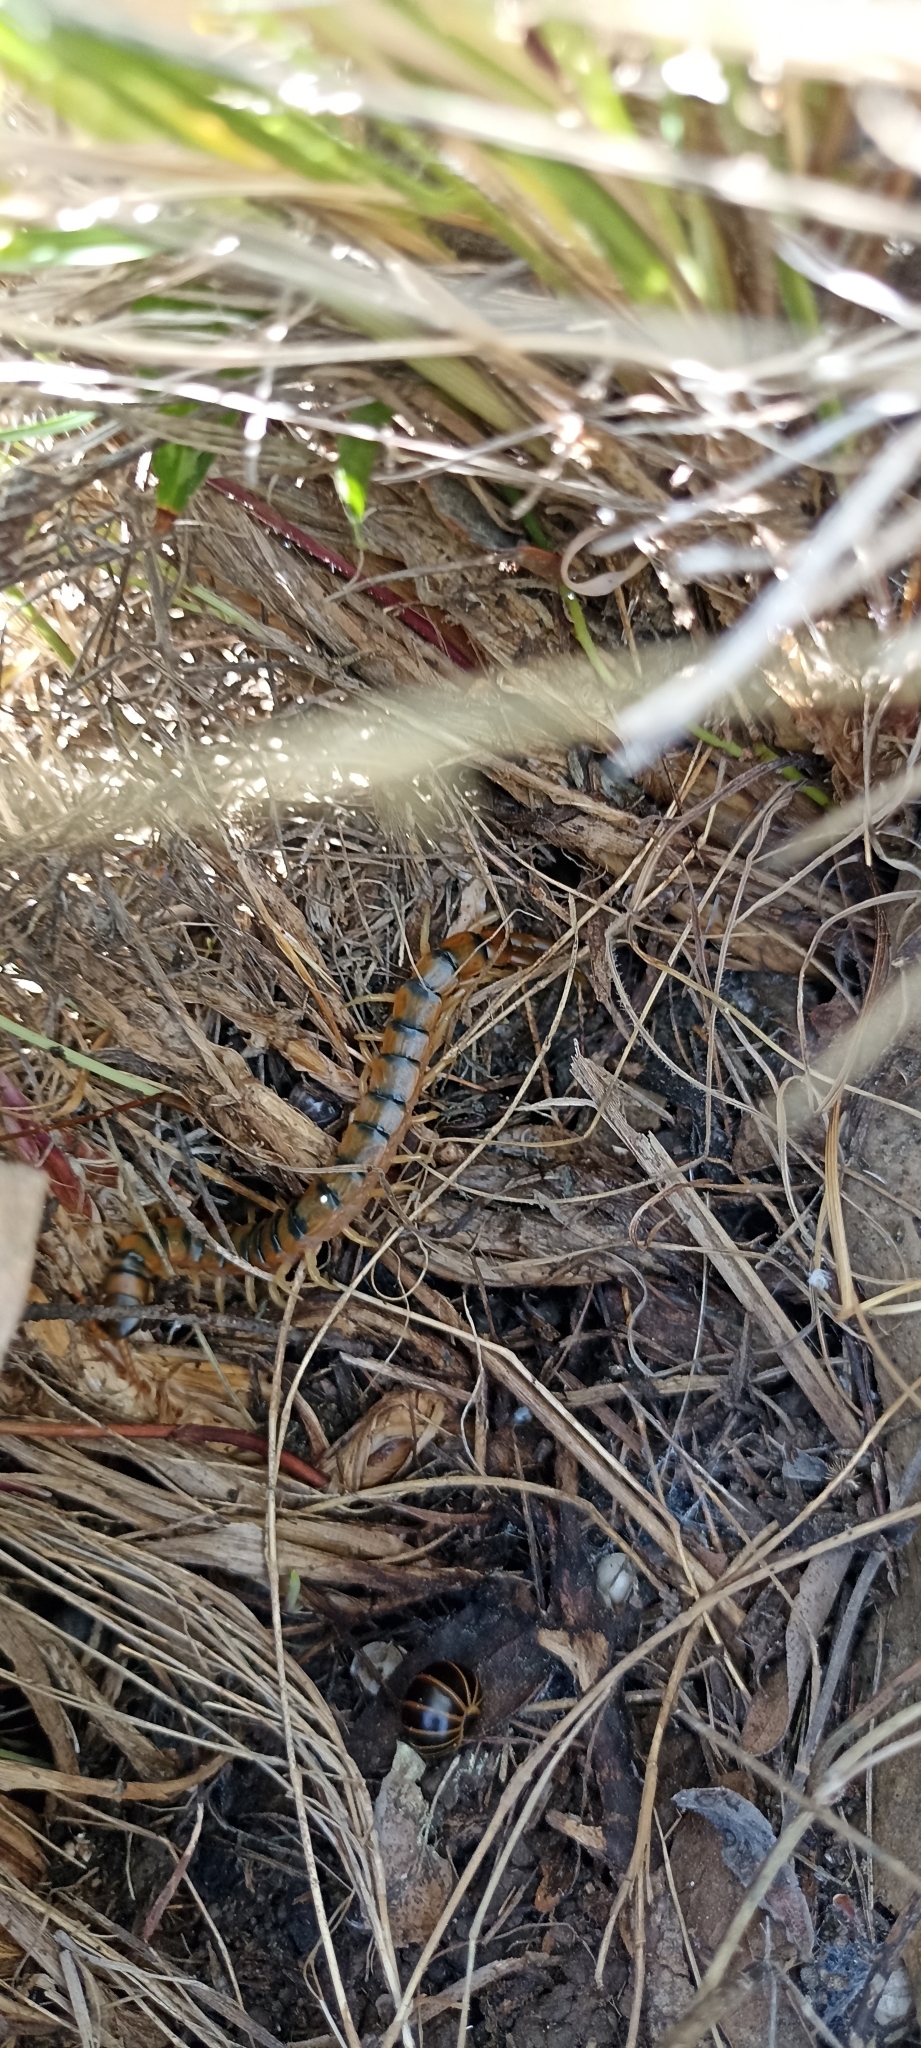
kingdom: Animalia
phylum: Arthropoda
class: Chilopoda
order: Scolopendromorpha
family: Scolopendridae
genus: Scolopendra
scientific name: Scolopendra cingulata
